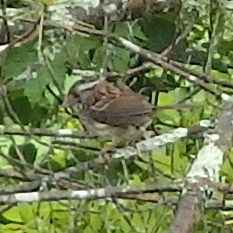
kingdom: Animalia
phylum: Chordata
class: Aves
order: Passeriformes
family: Passerellidae
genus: Zonotrichia
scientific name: Zonotrichia albicollis
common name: White-throated sparrow
